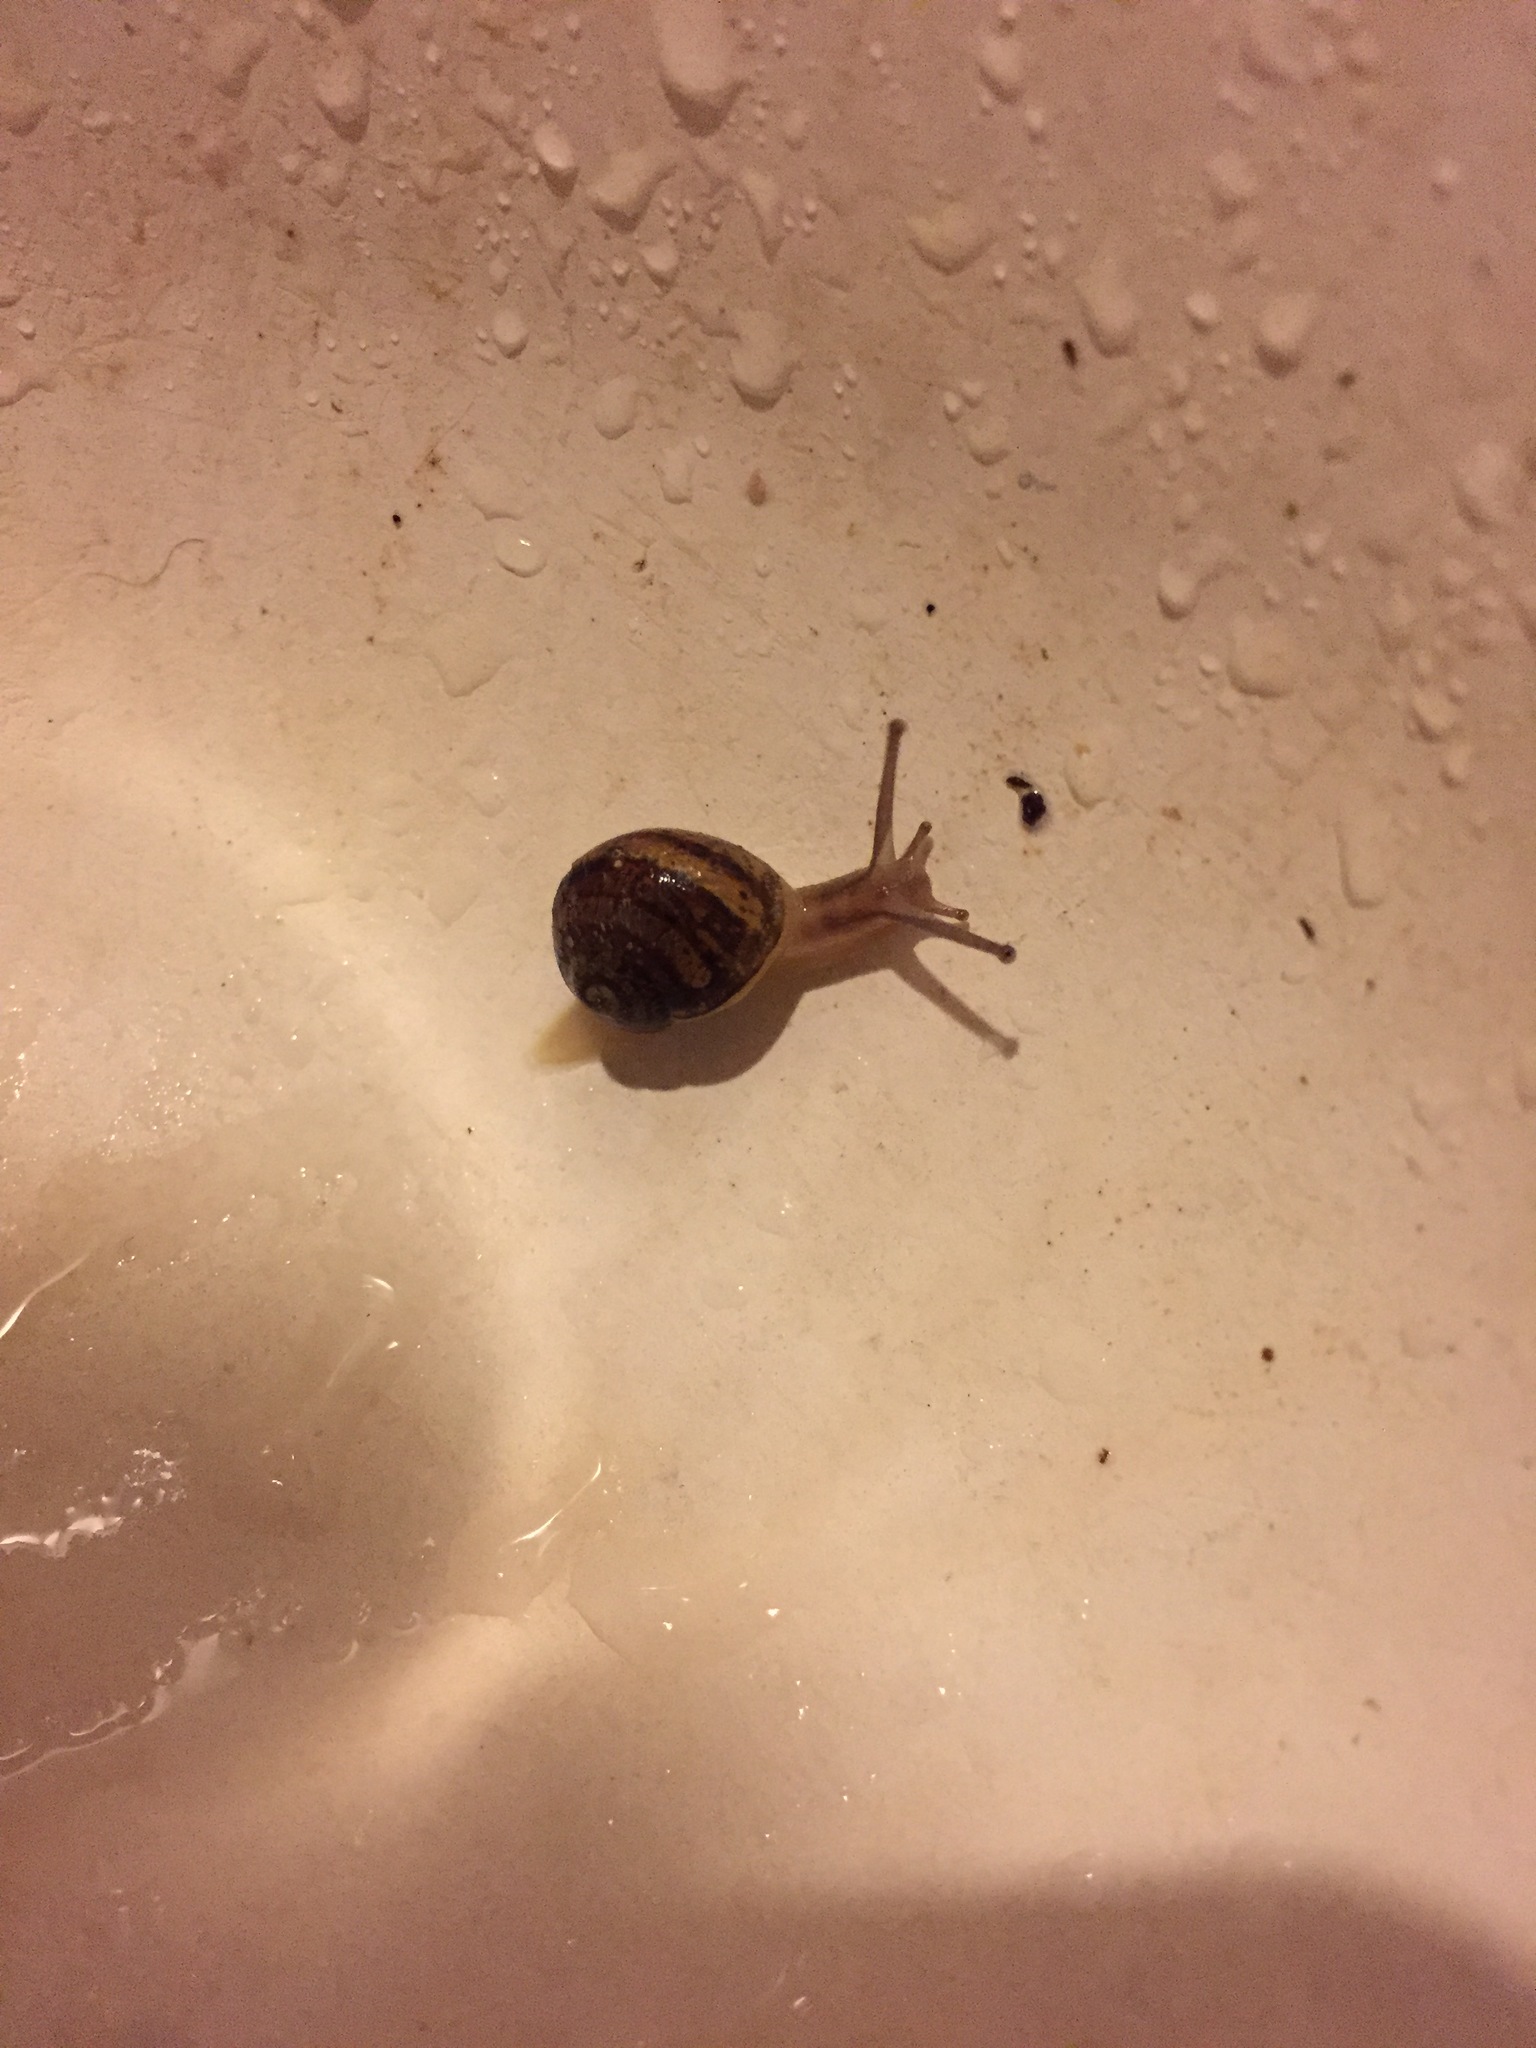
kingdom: Animalia
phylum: Mollusca
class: Gastropoda
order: Stylommatophora
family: Helicidae
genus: Cornu
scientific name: Cornu aspersum
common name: Brown garden snail
